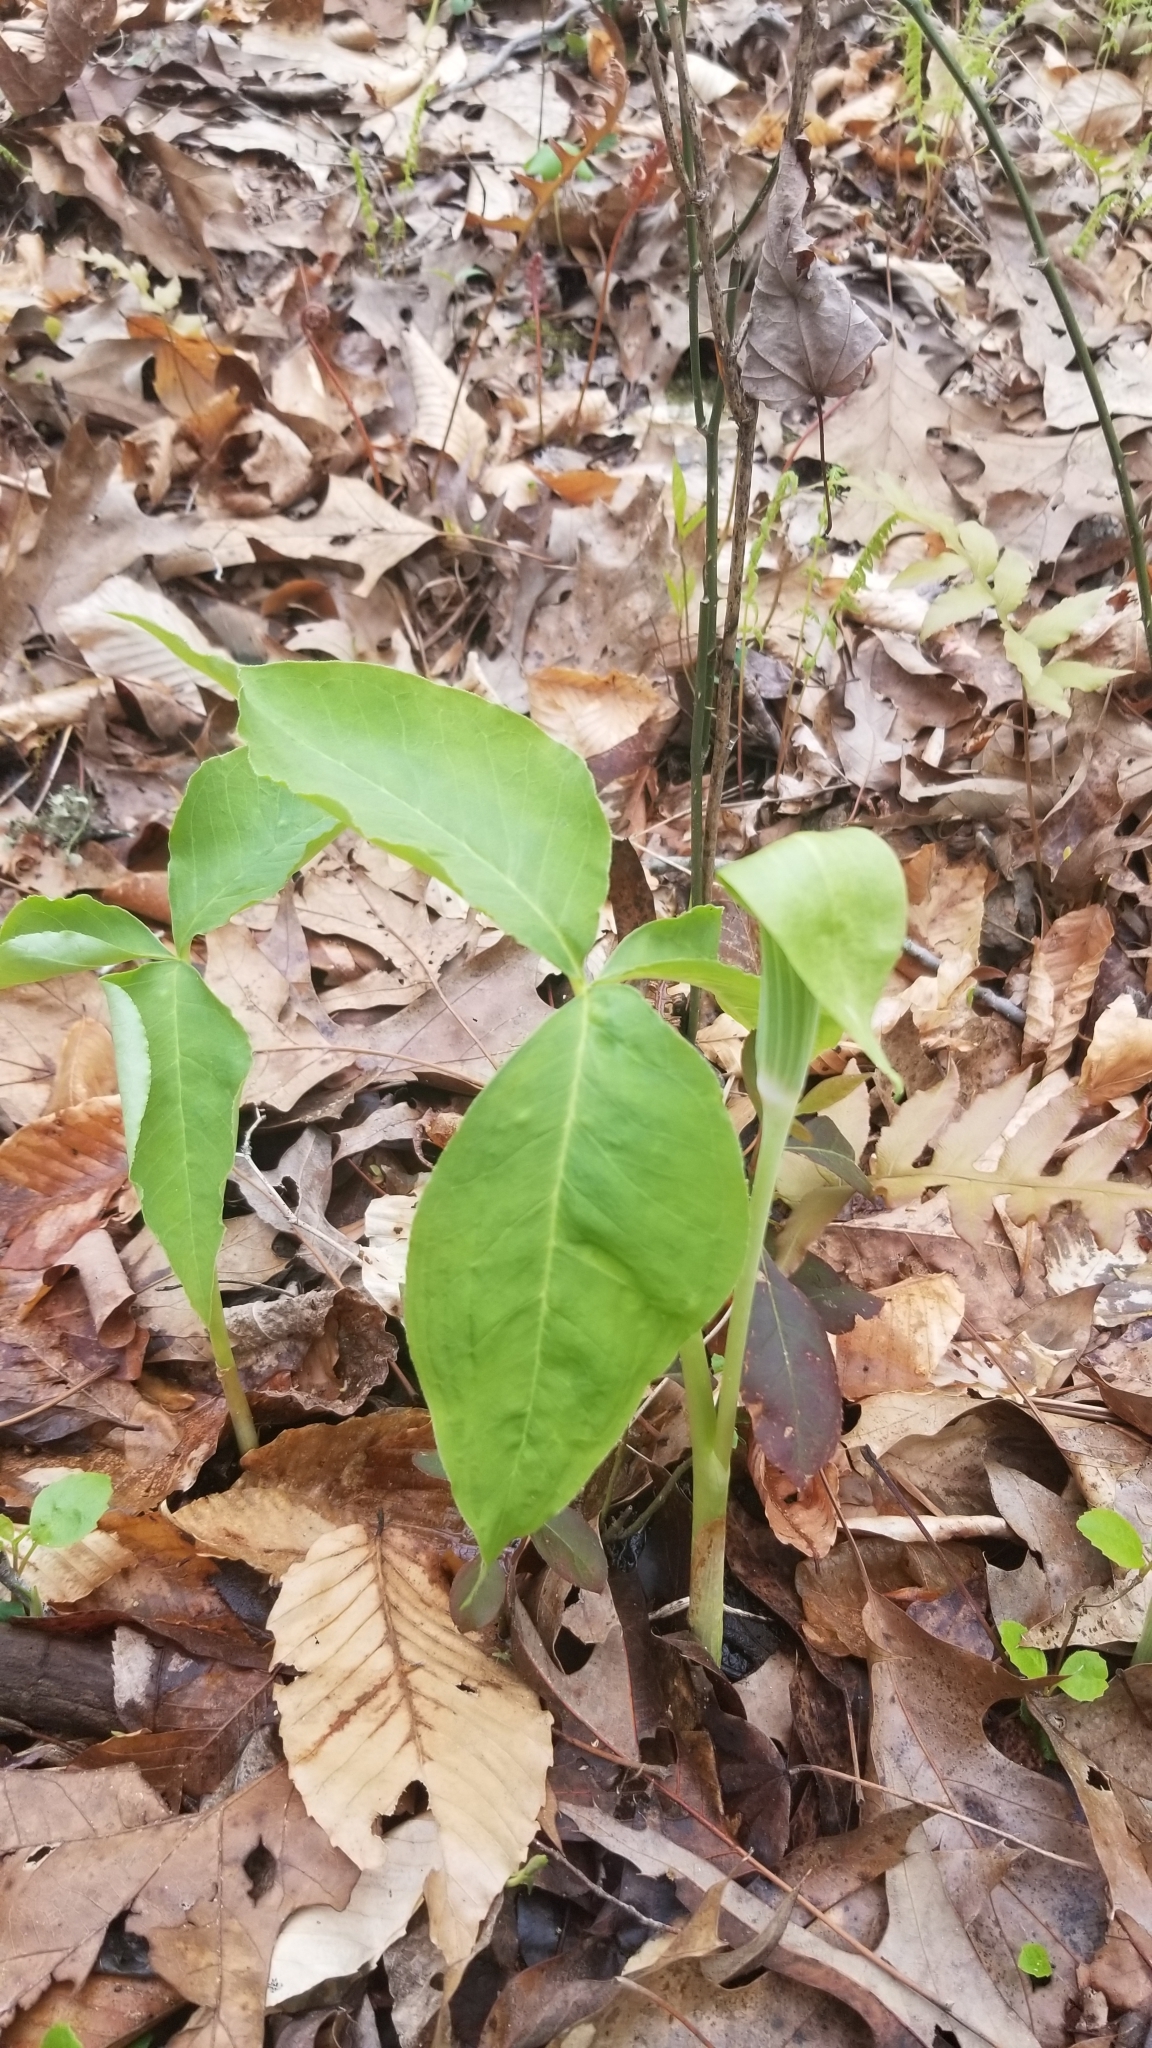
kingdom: Plantae
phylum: Tracheophyta
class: Liliopsida
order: Alismatales
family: Araceae
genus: Arisaema
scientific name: Arisaema triphyllum
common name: Jack-in-the-pulpit
